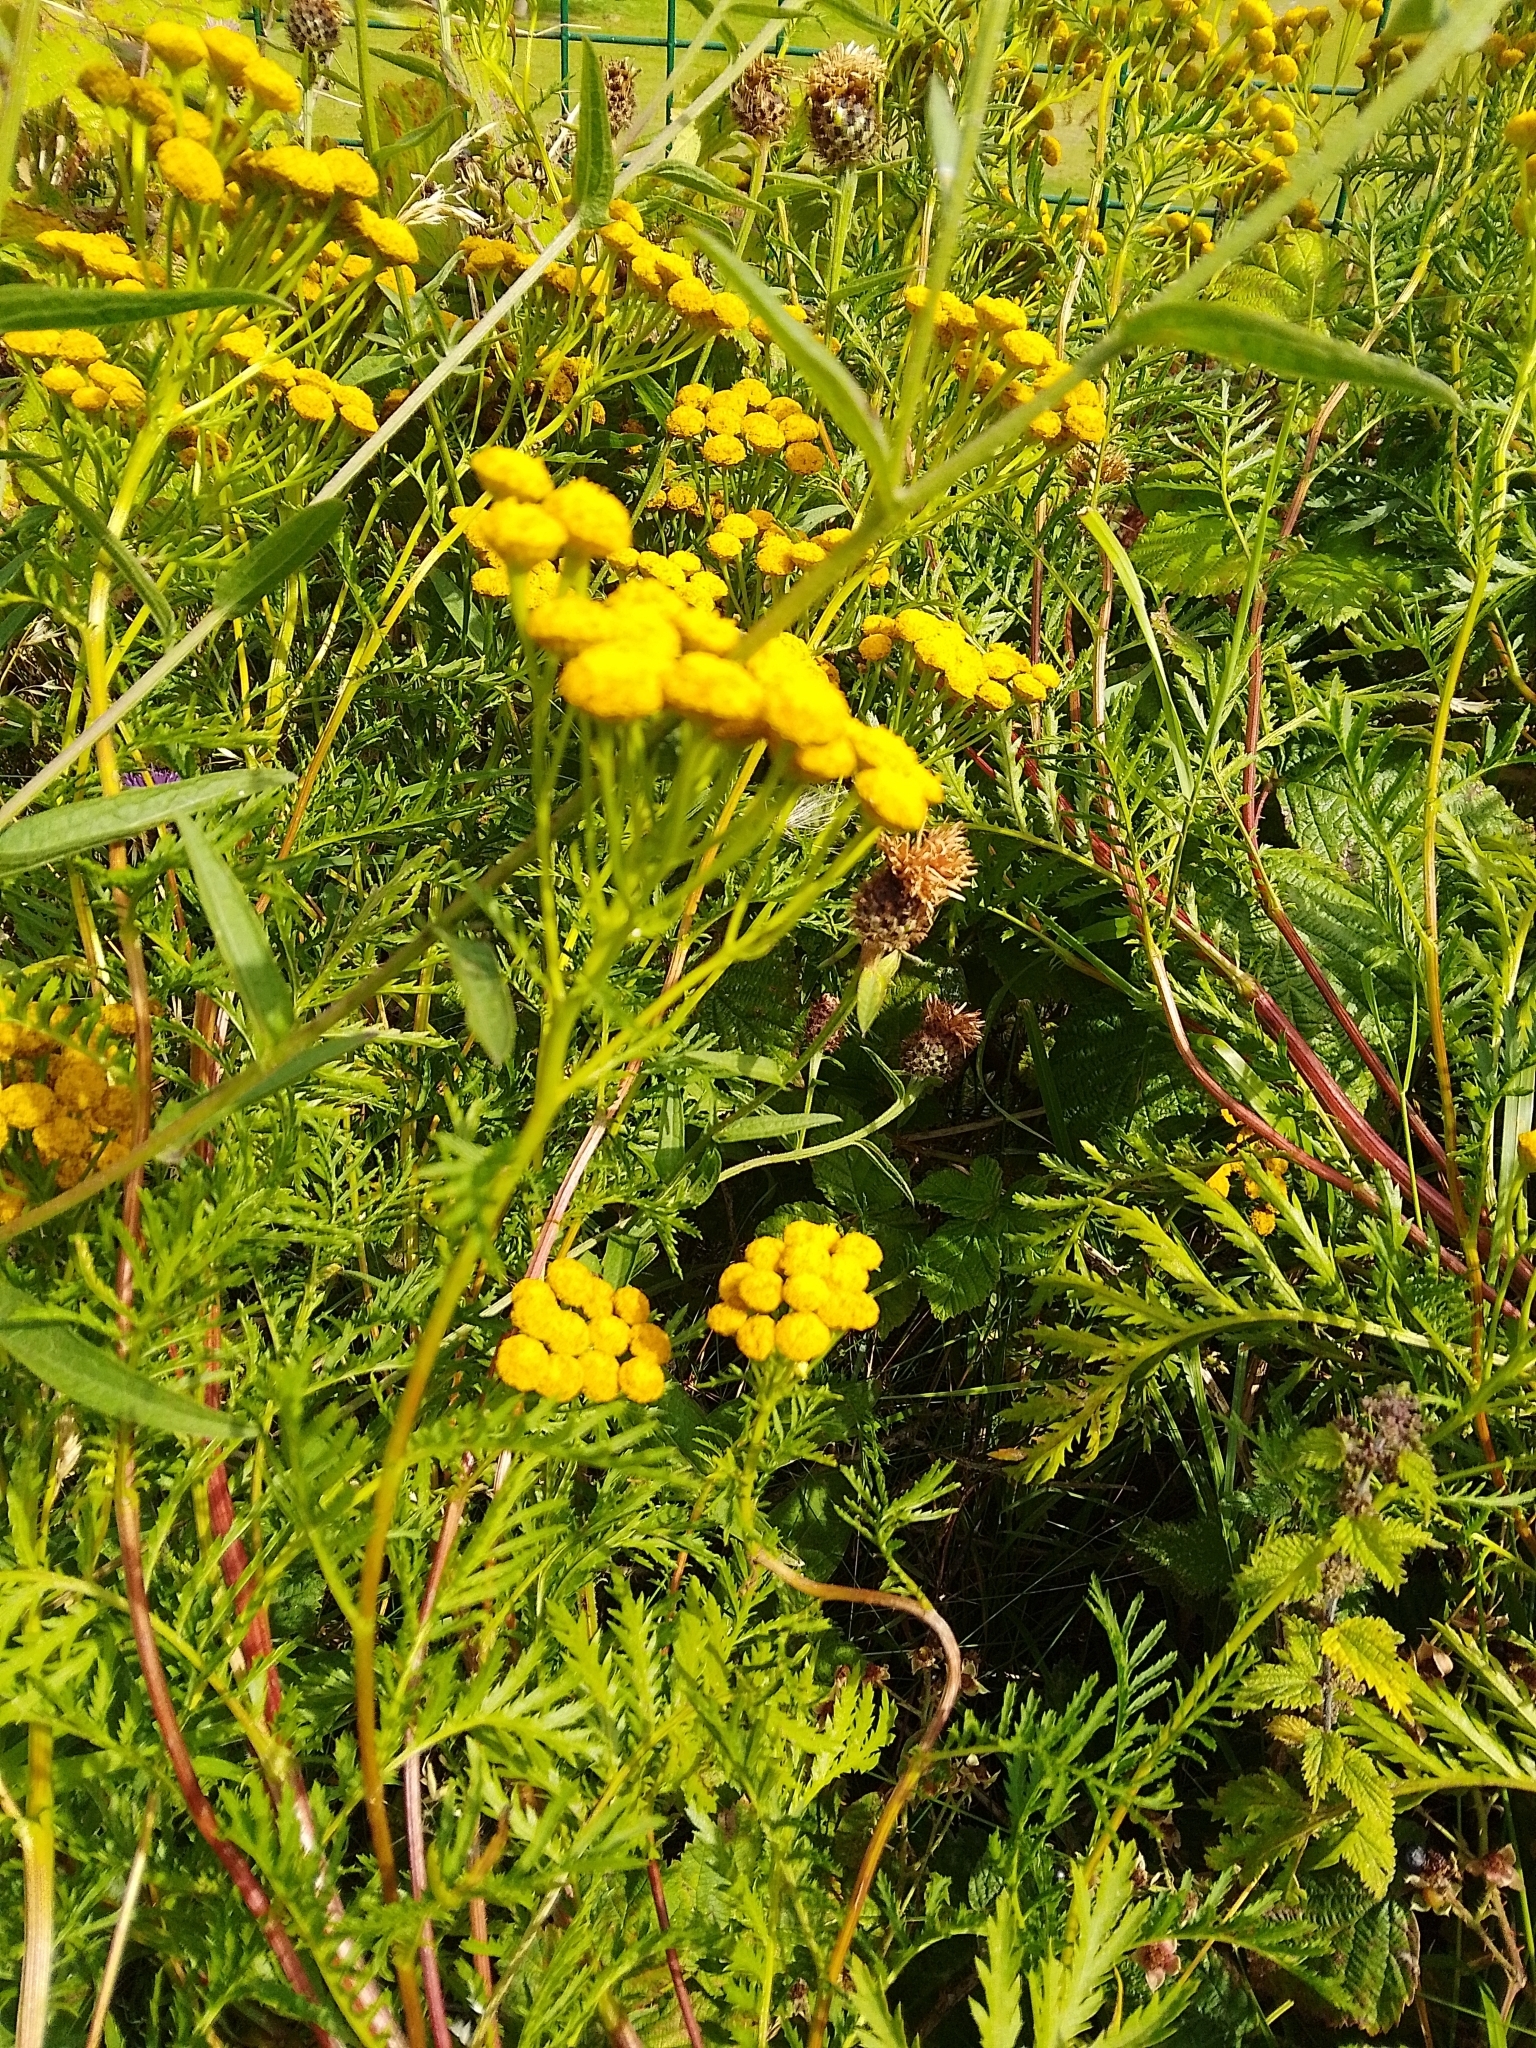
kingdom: Plantae
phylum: Tracheophyta
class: Magnoliopsida
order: Asterales
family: Asteraceae
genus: Tanacetum
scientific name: Tanacetum vulgare
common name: Common tansy
